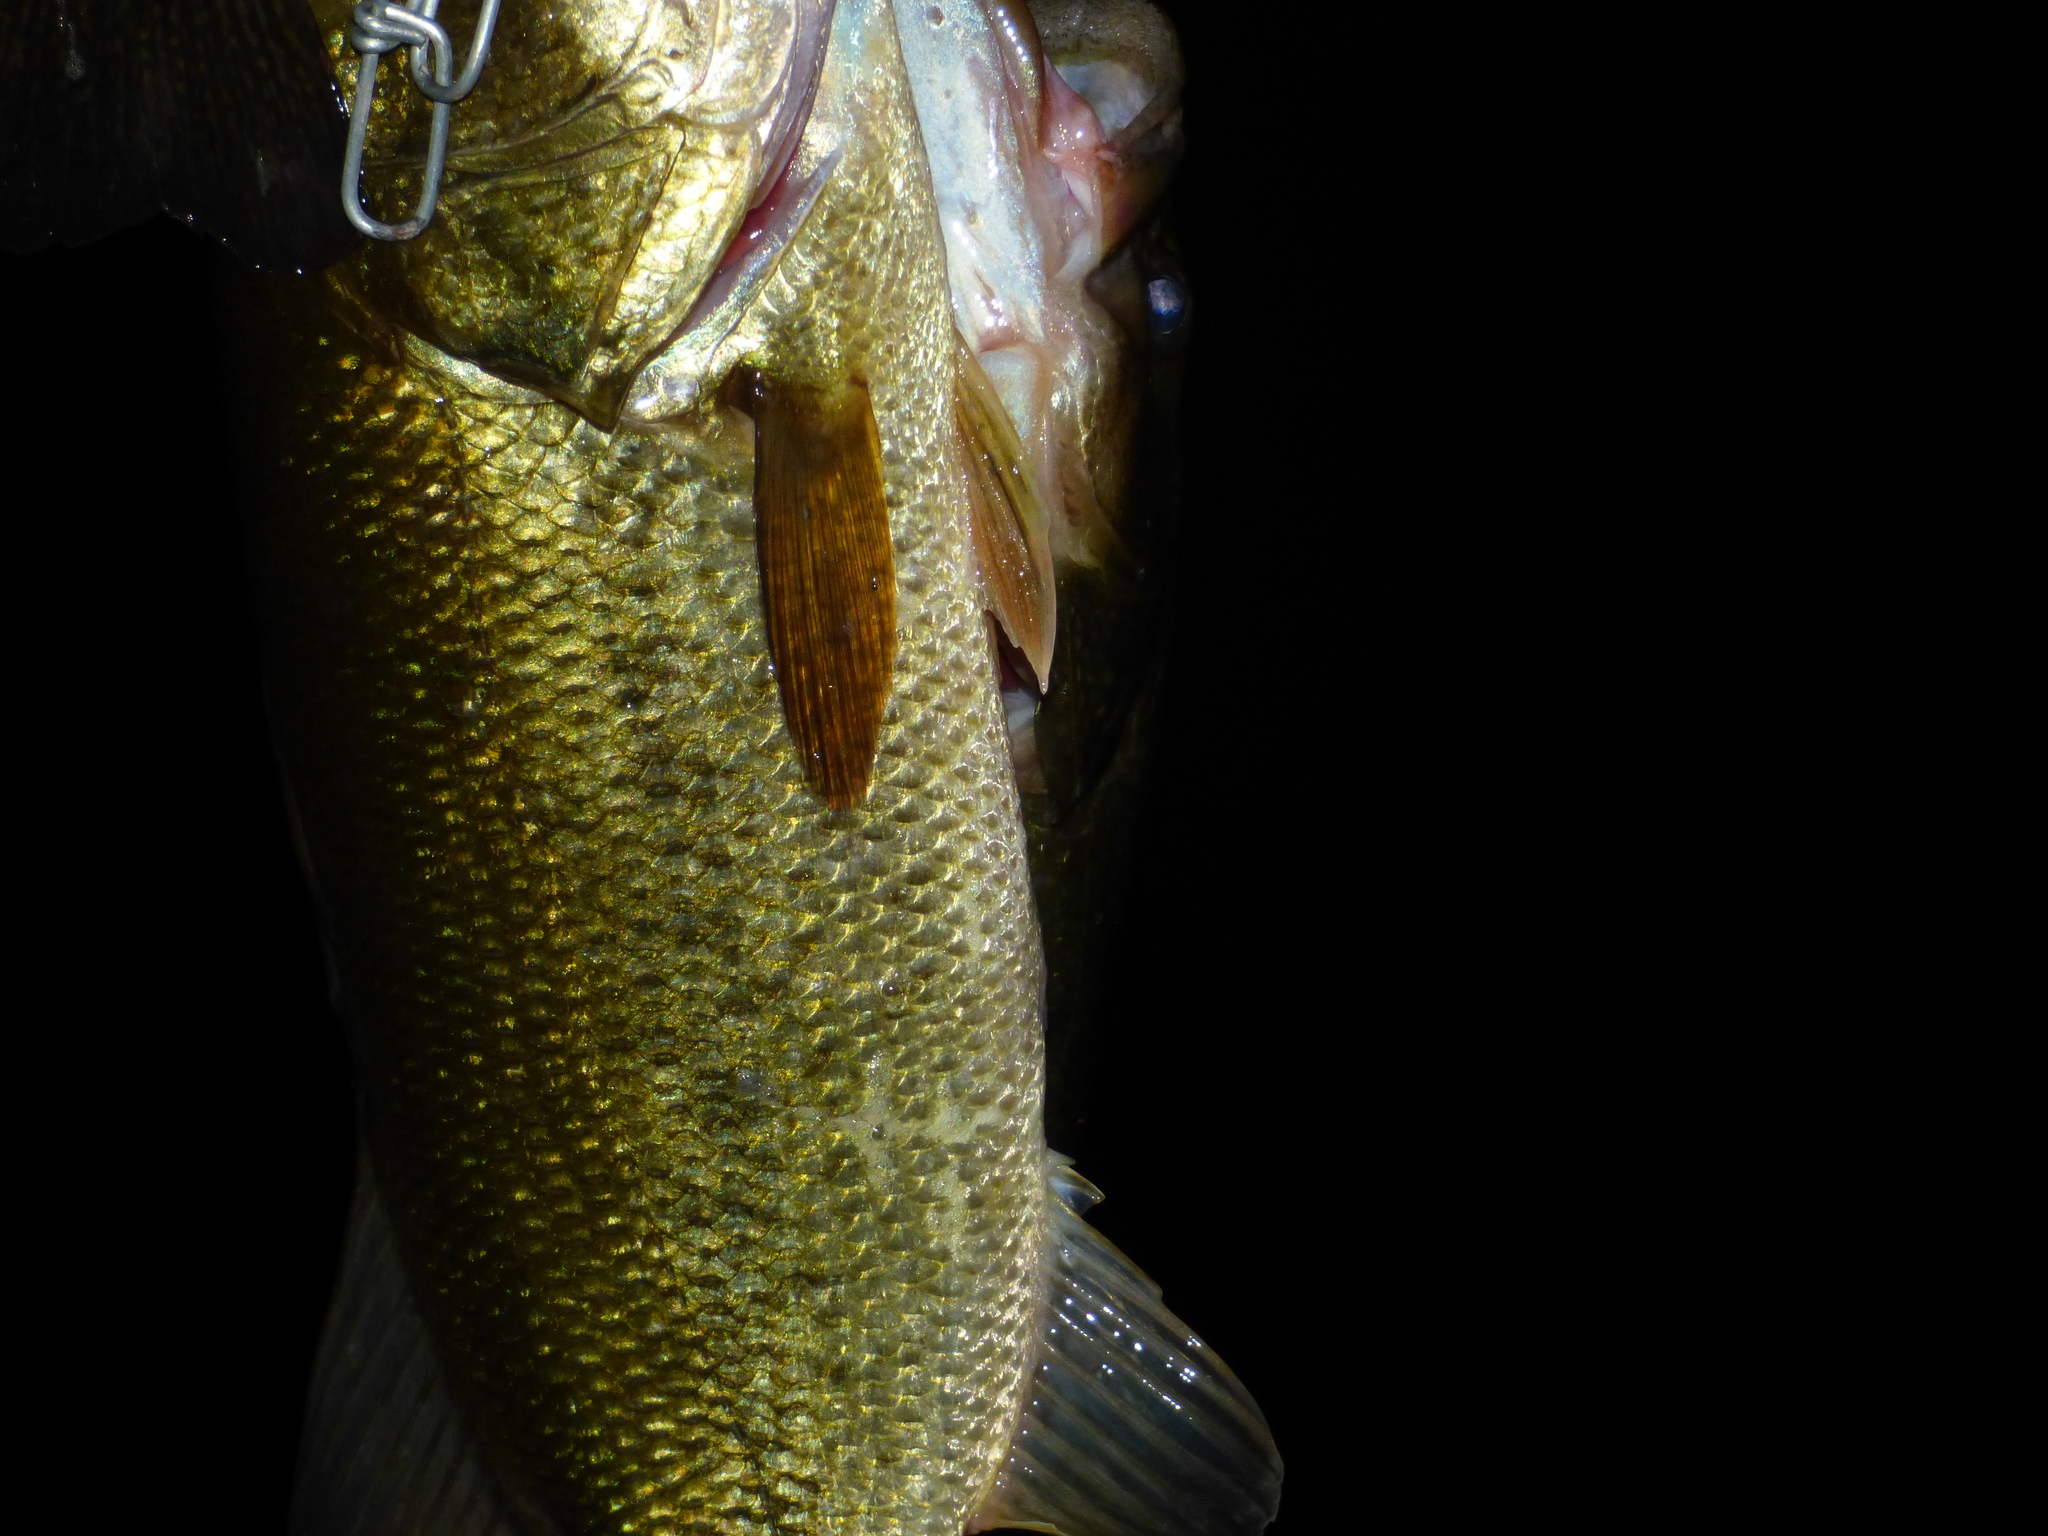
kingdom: Animalia
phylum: Chordata
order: Perciformes
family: Centrarchidae
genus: Micropterus
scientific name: Micropterus
